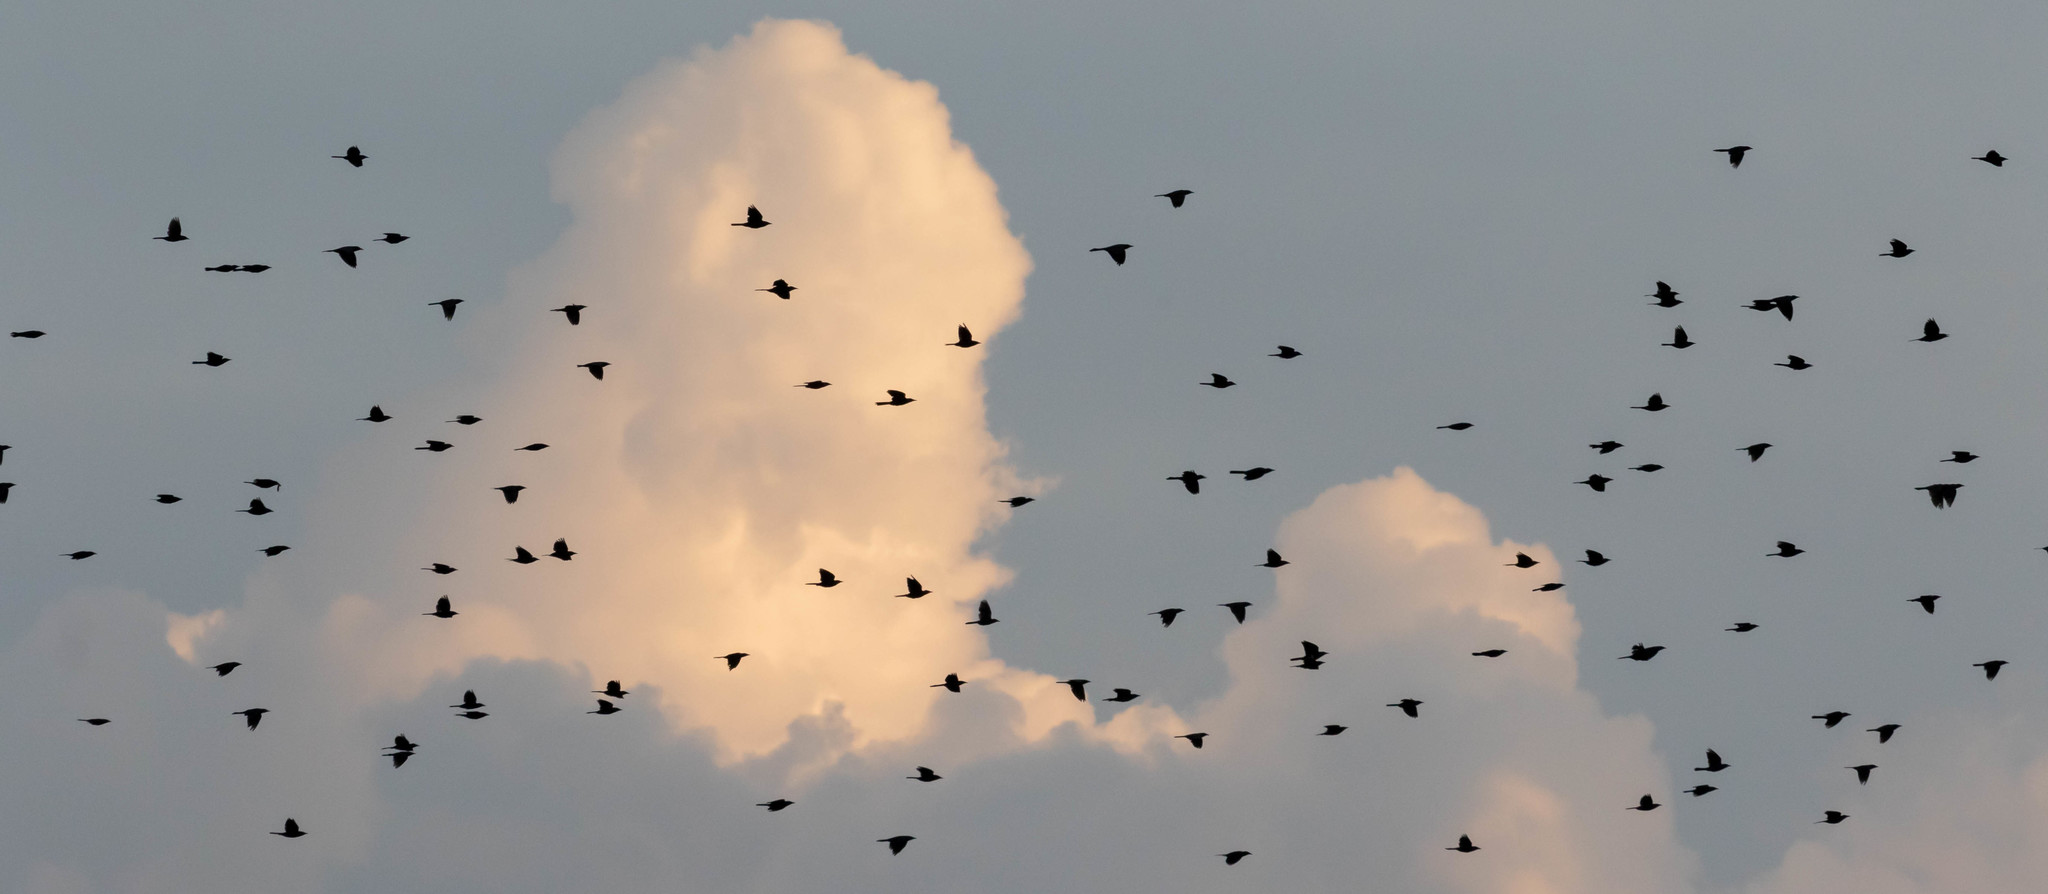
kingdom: Animalia
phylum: Chordata
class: Aves
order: Passeriformes
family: Icteridae
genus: Quiscalus
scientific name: Quiscalus quiscula
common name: Common grackle
